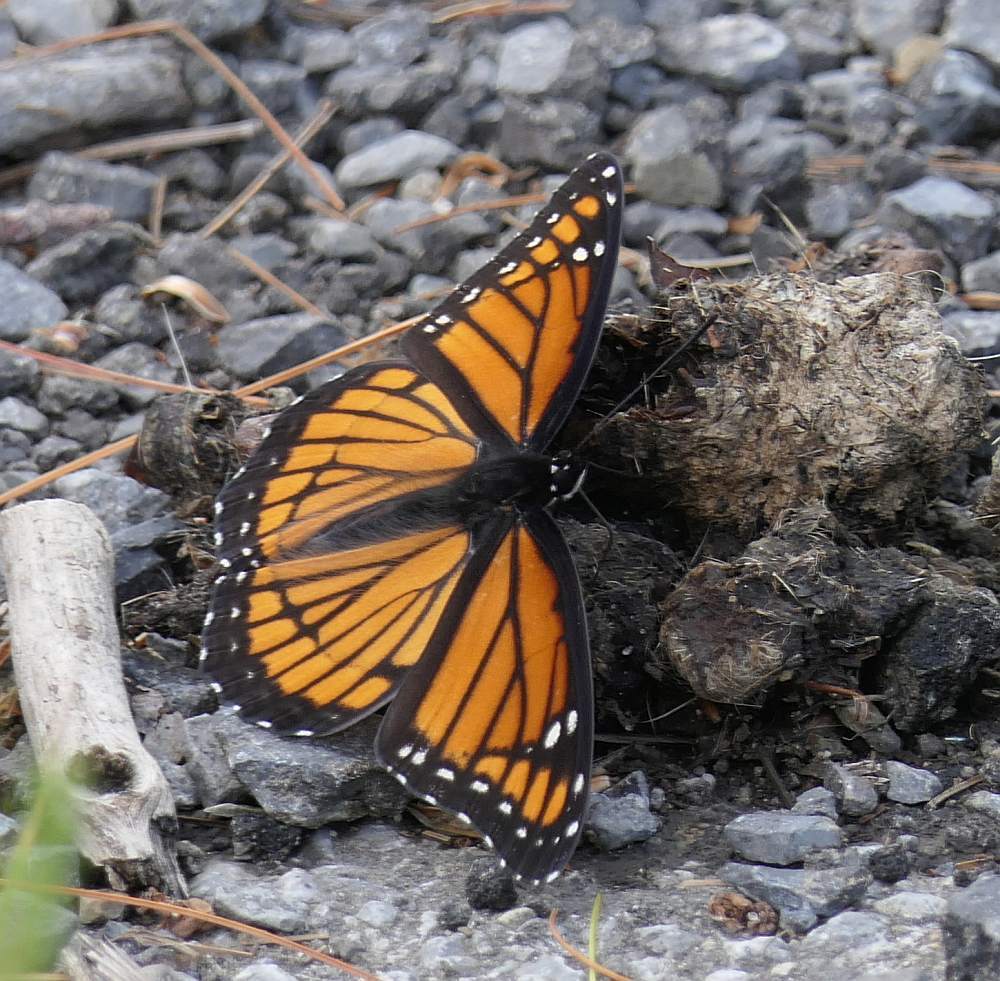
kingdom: Animalia
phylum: Arthropoda
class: Insecta
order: Lepidoptera
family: Nymphalidae
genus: Limenitis
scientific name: Limenitis archippus
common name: Viceroy
